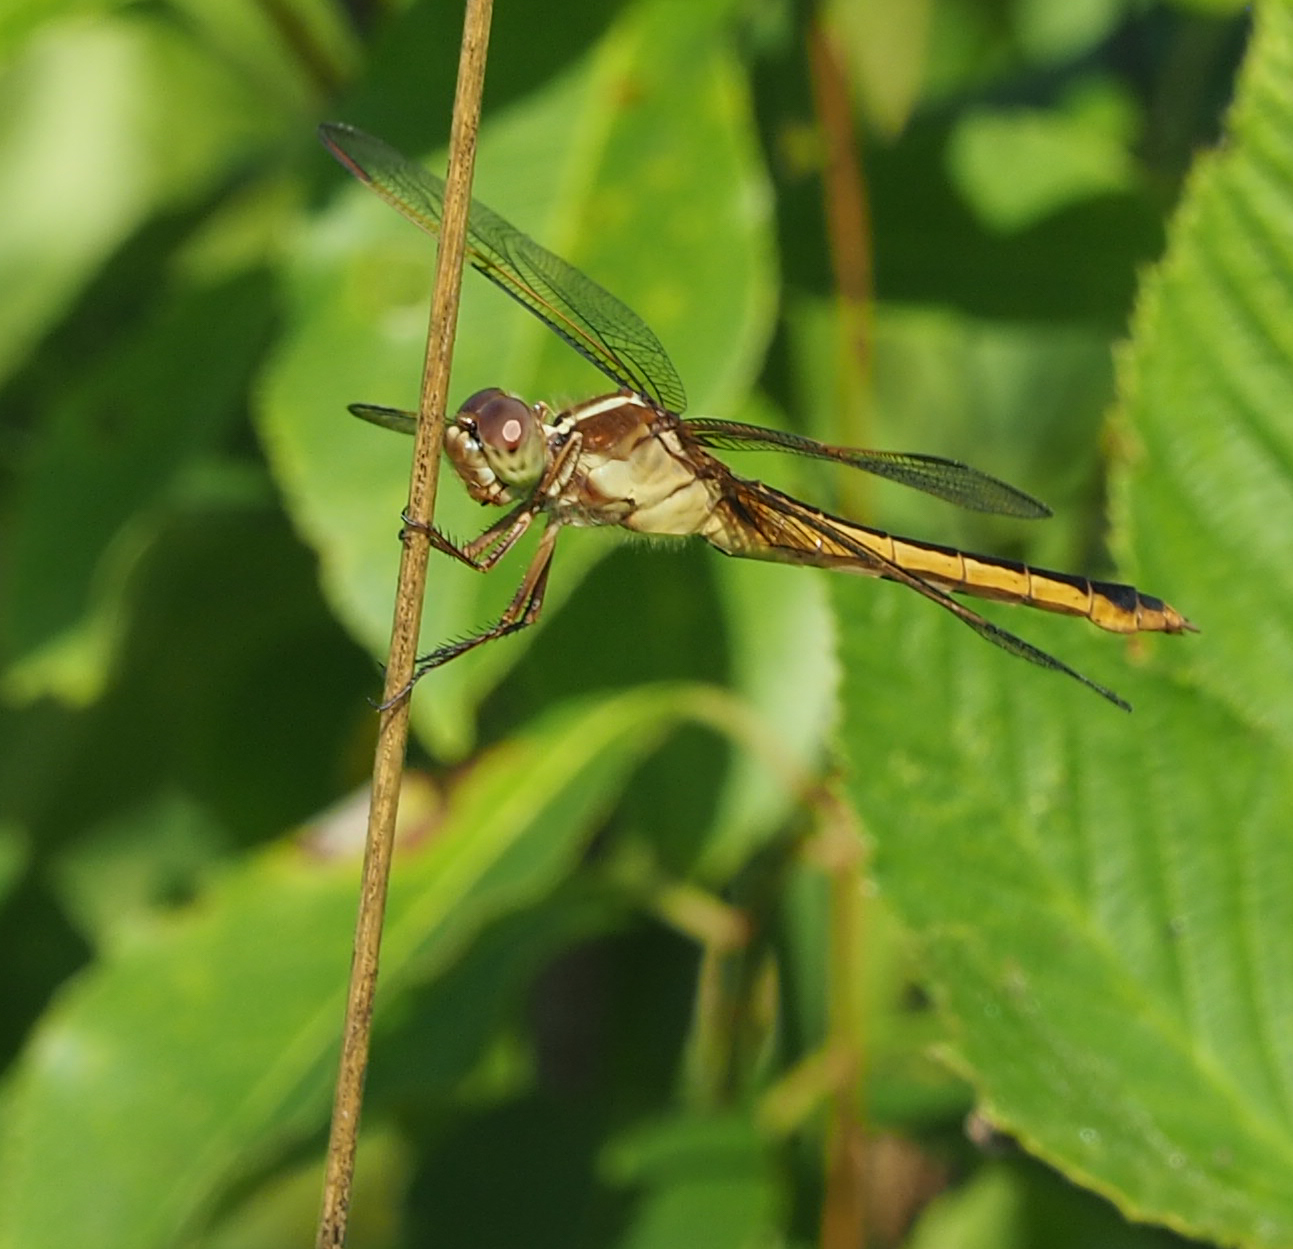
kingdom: Animalia
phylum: Arthropoda
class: Insecta
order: Odonata
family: Libellulidae
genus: Libellula
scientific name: Libellula needhami
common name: Needham's skimmer
